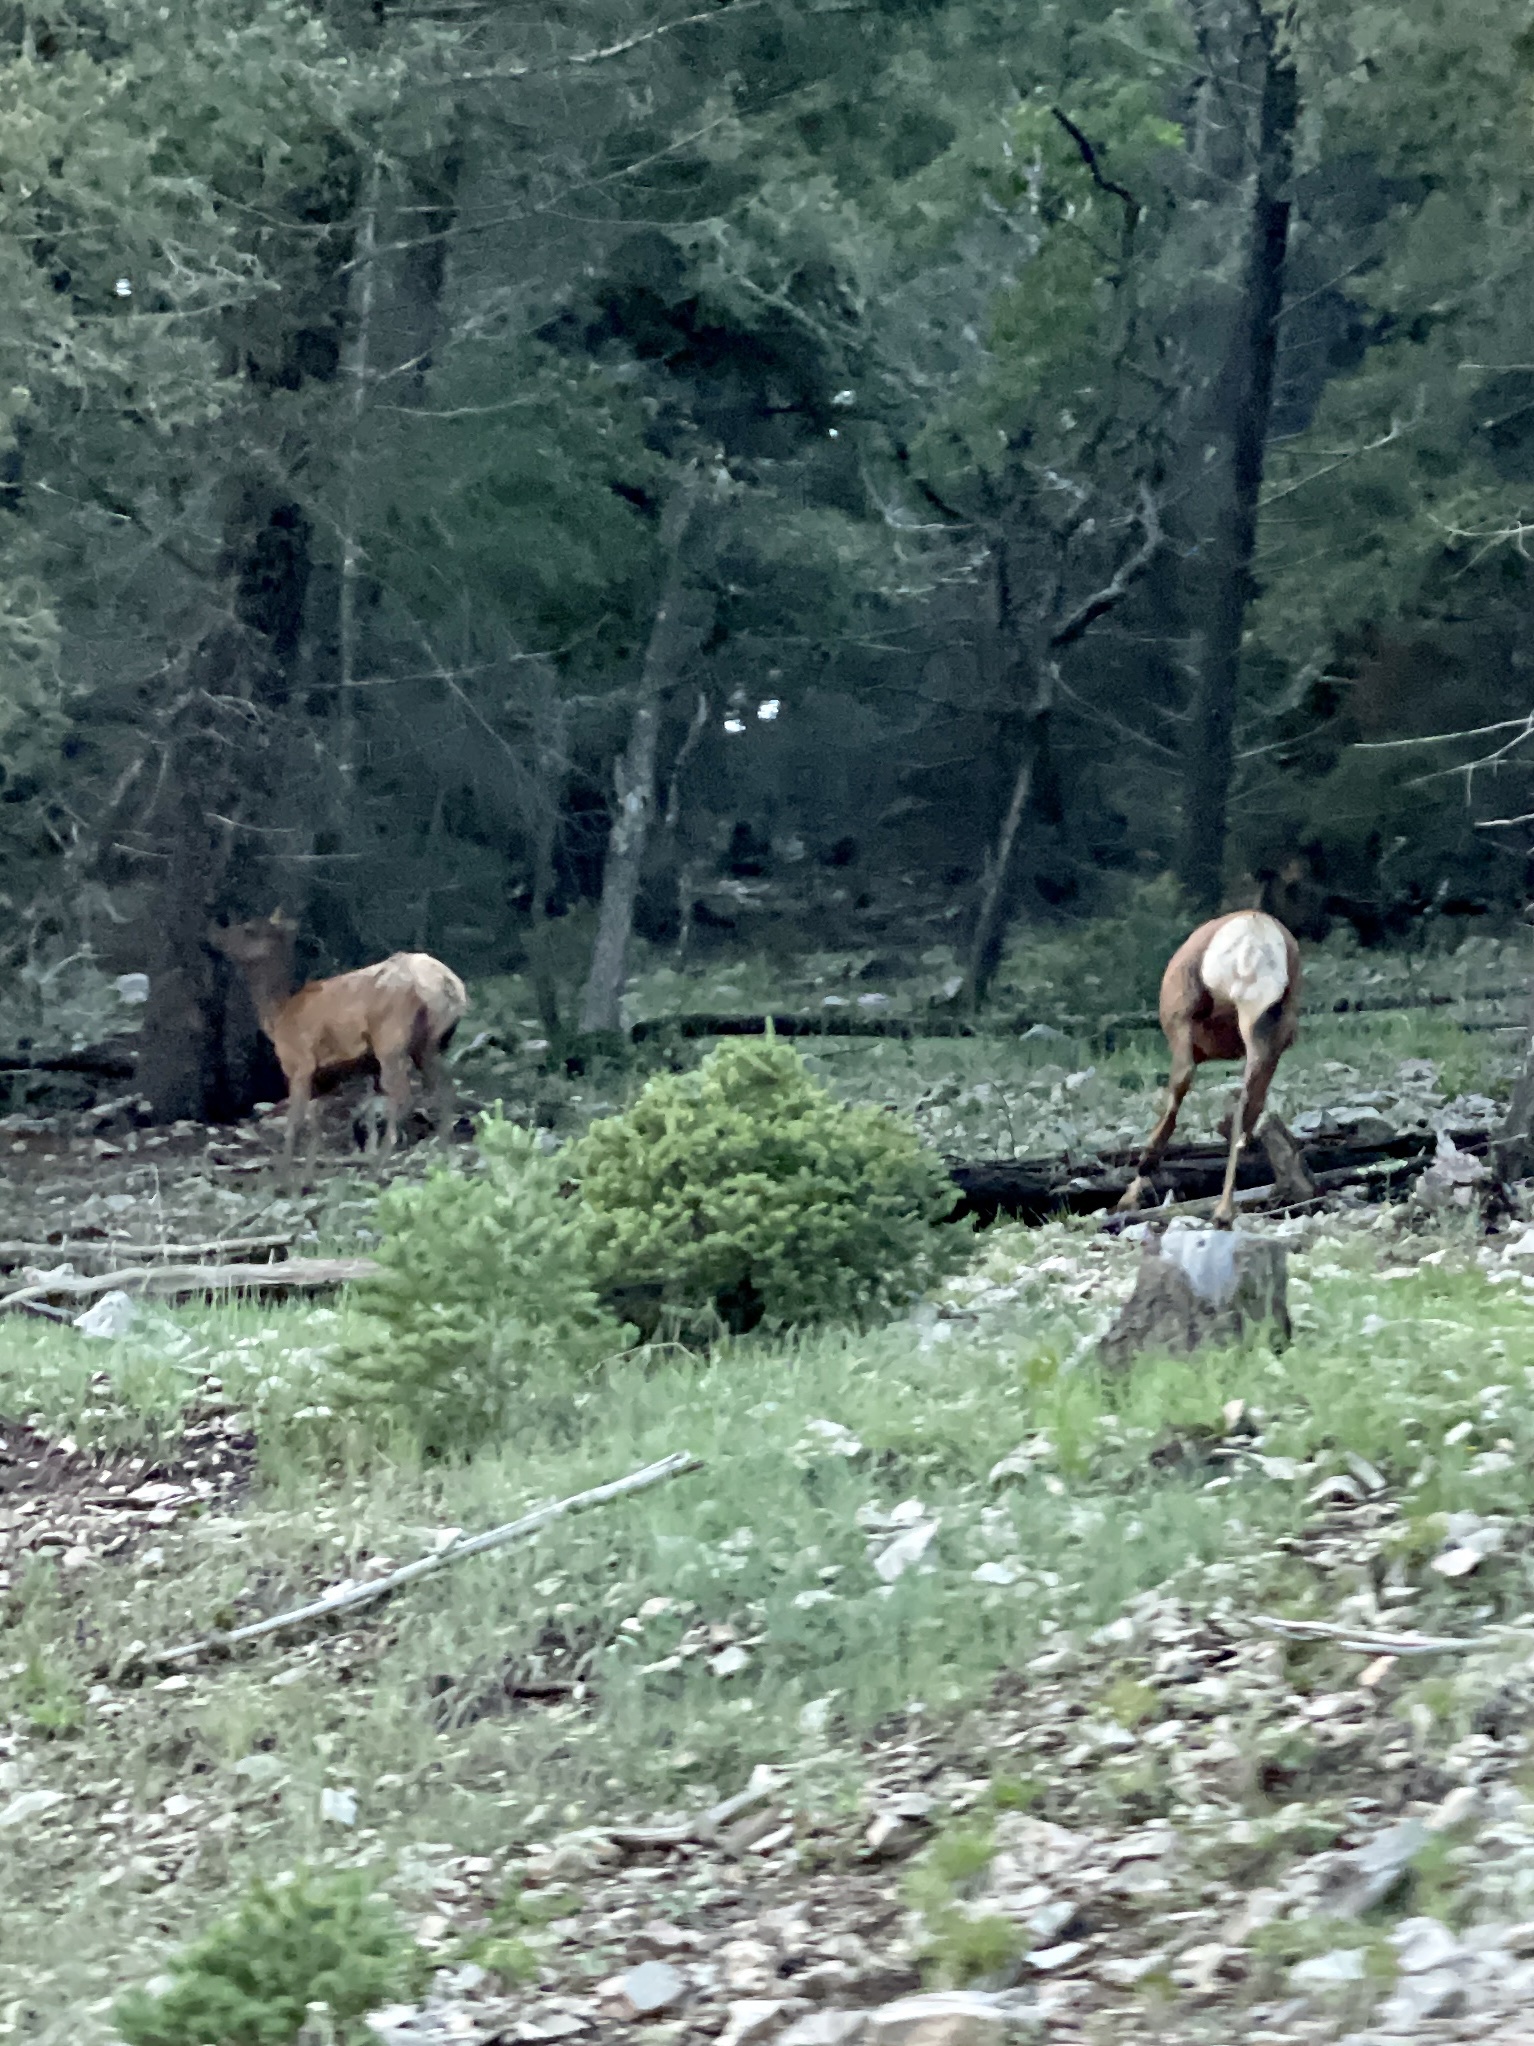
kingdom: Animalia
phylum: Chordata
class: Mammalia
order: Artiodactyla
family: Cervidae
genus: Cervus
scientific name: Cervus elaphus
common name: Red deer
